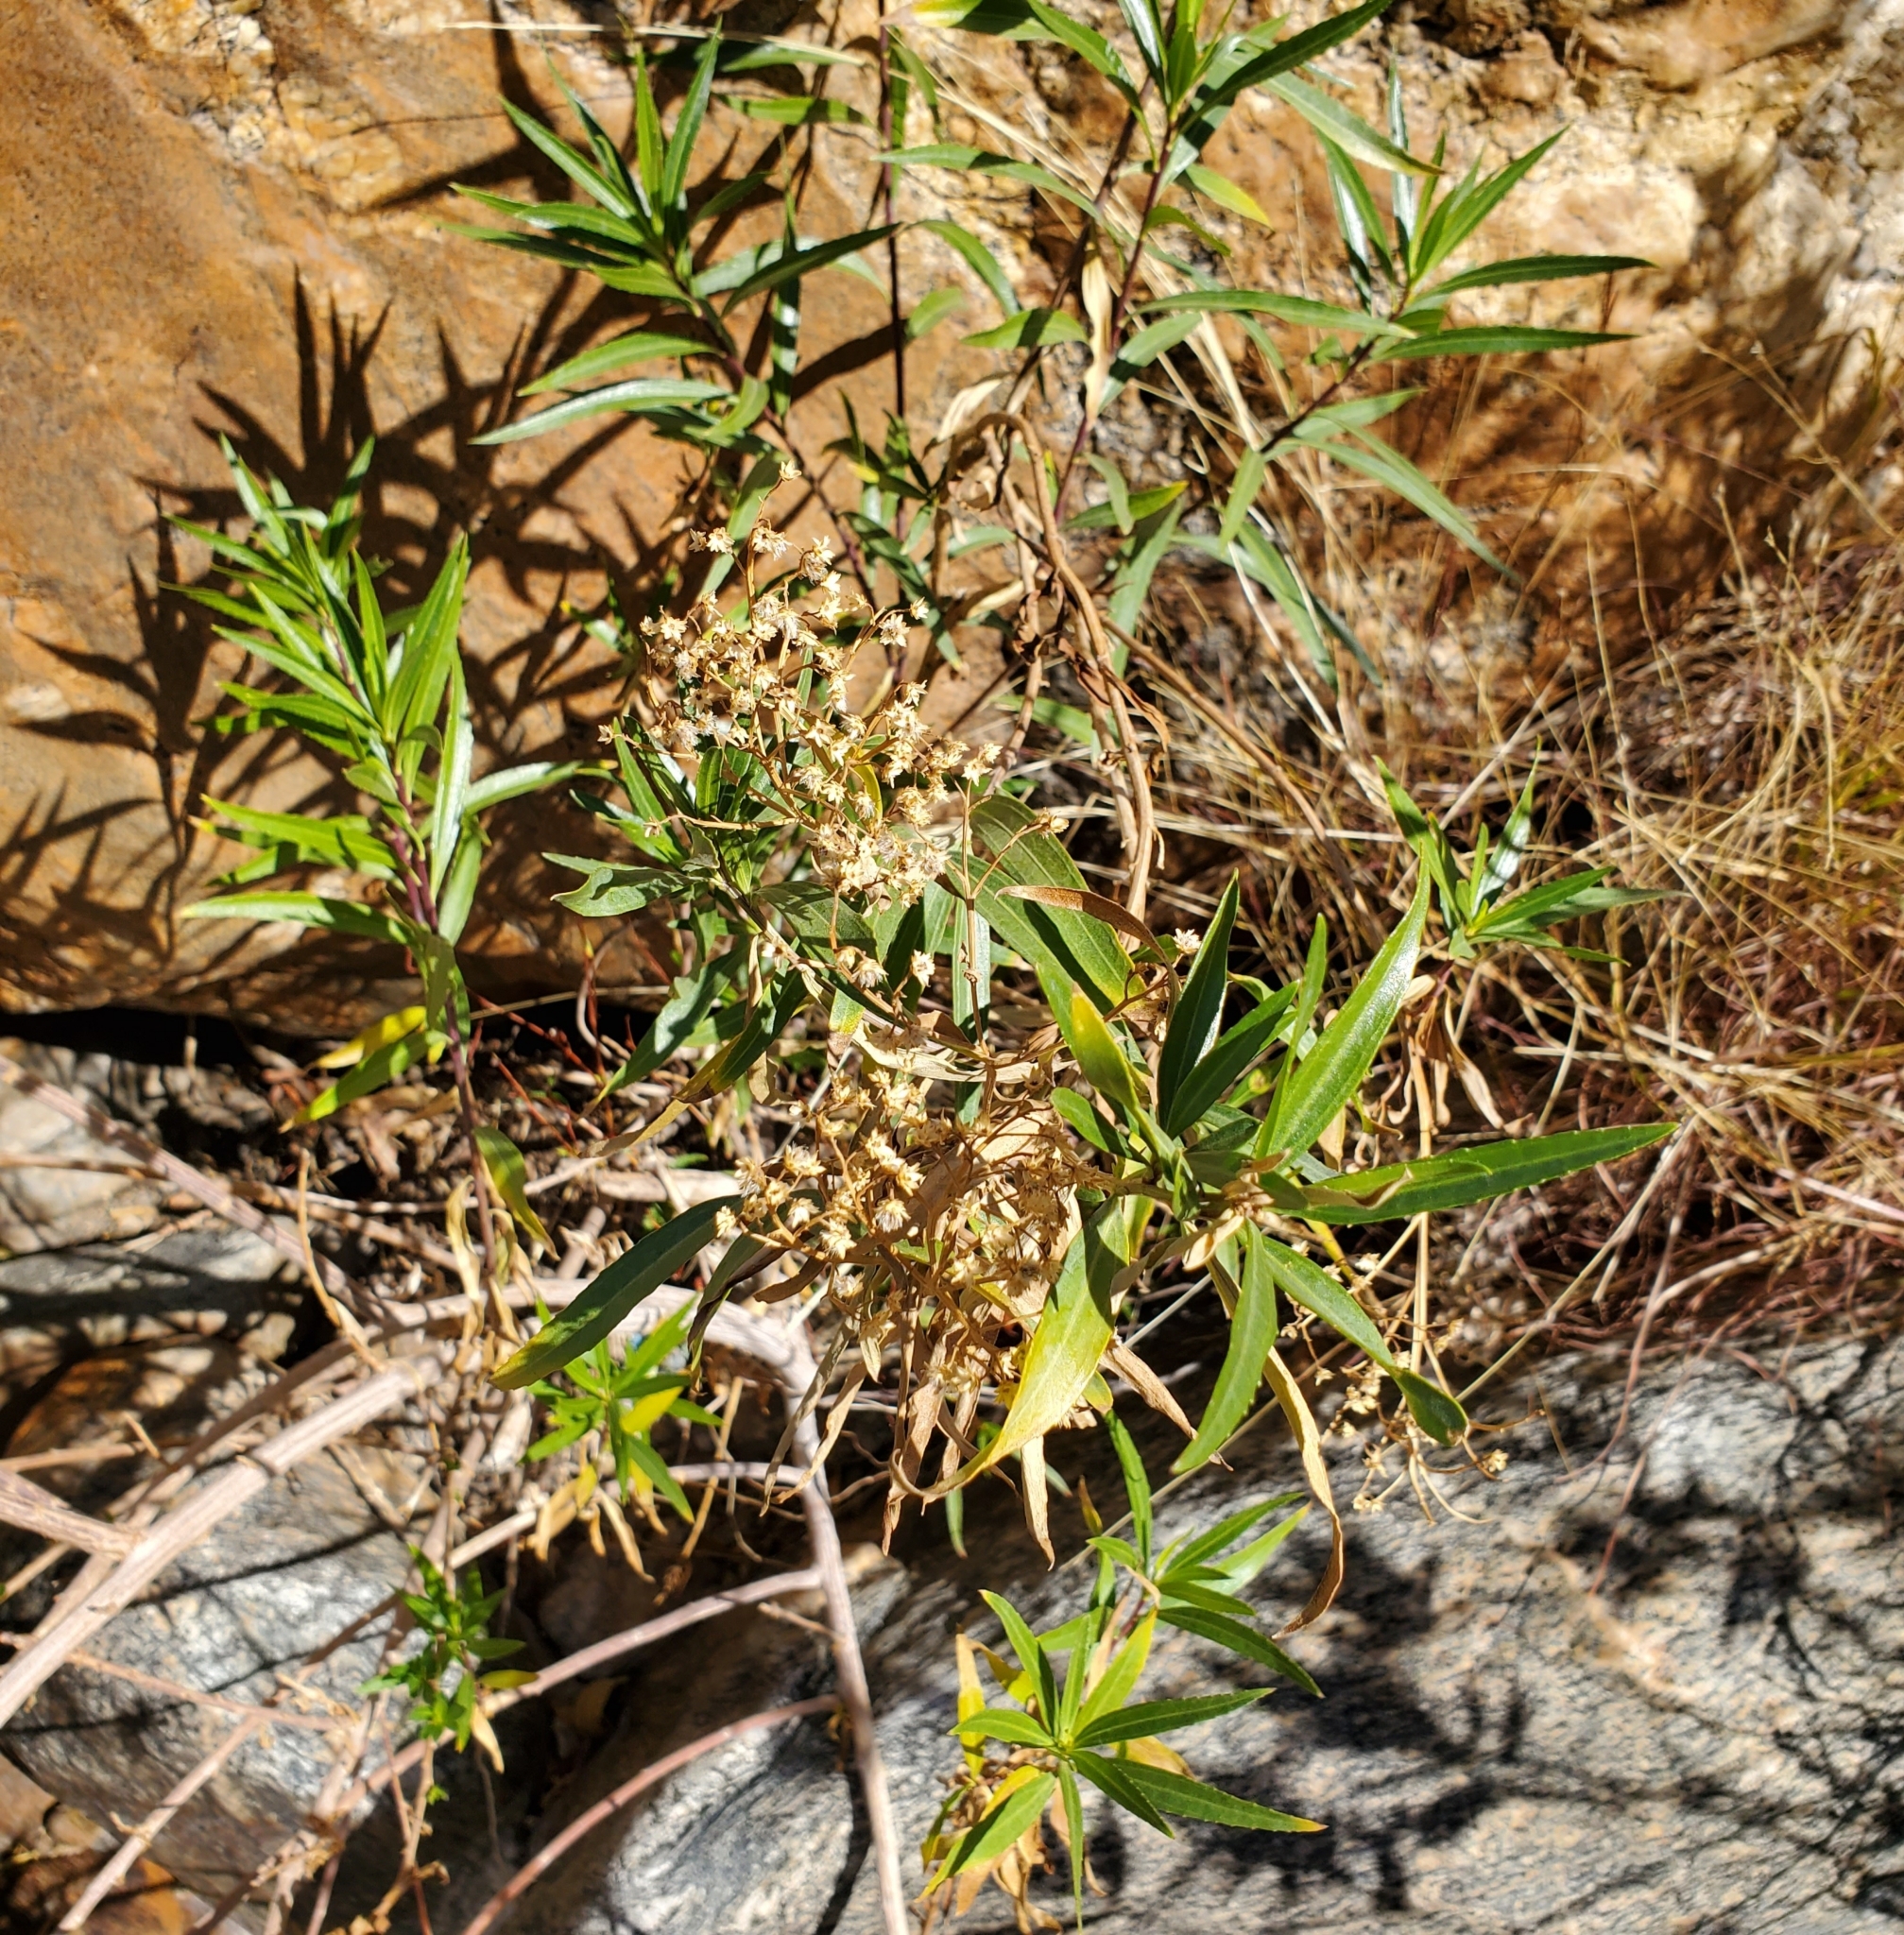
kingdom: Plantae
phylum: Tracheophyta
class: Magnoliopsida
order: Asterales
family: Asteraceae
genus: Baccharis
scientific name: Baccharis salicifolia
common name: Sticky baccharis
